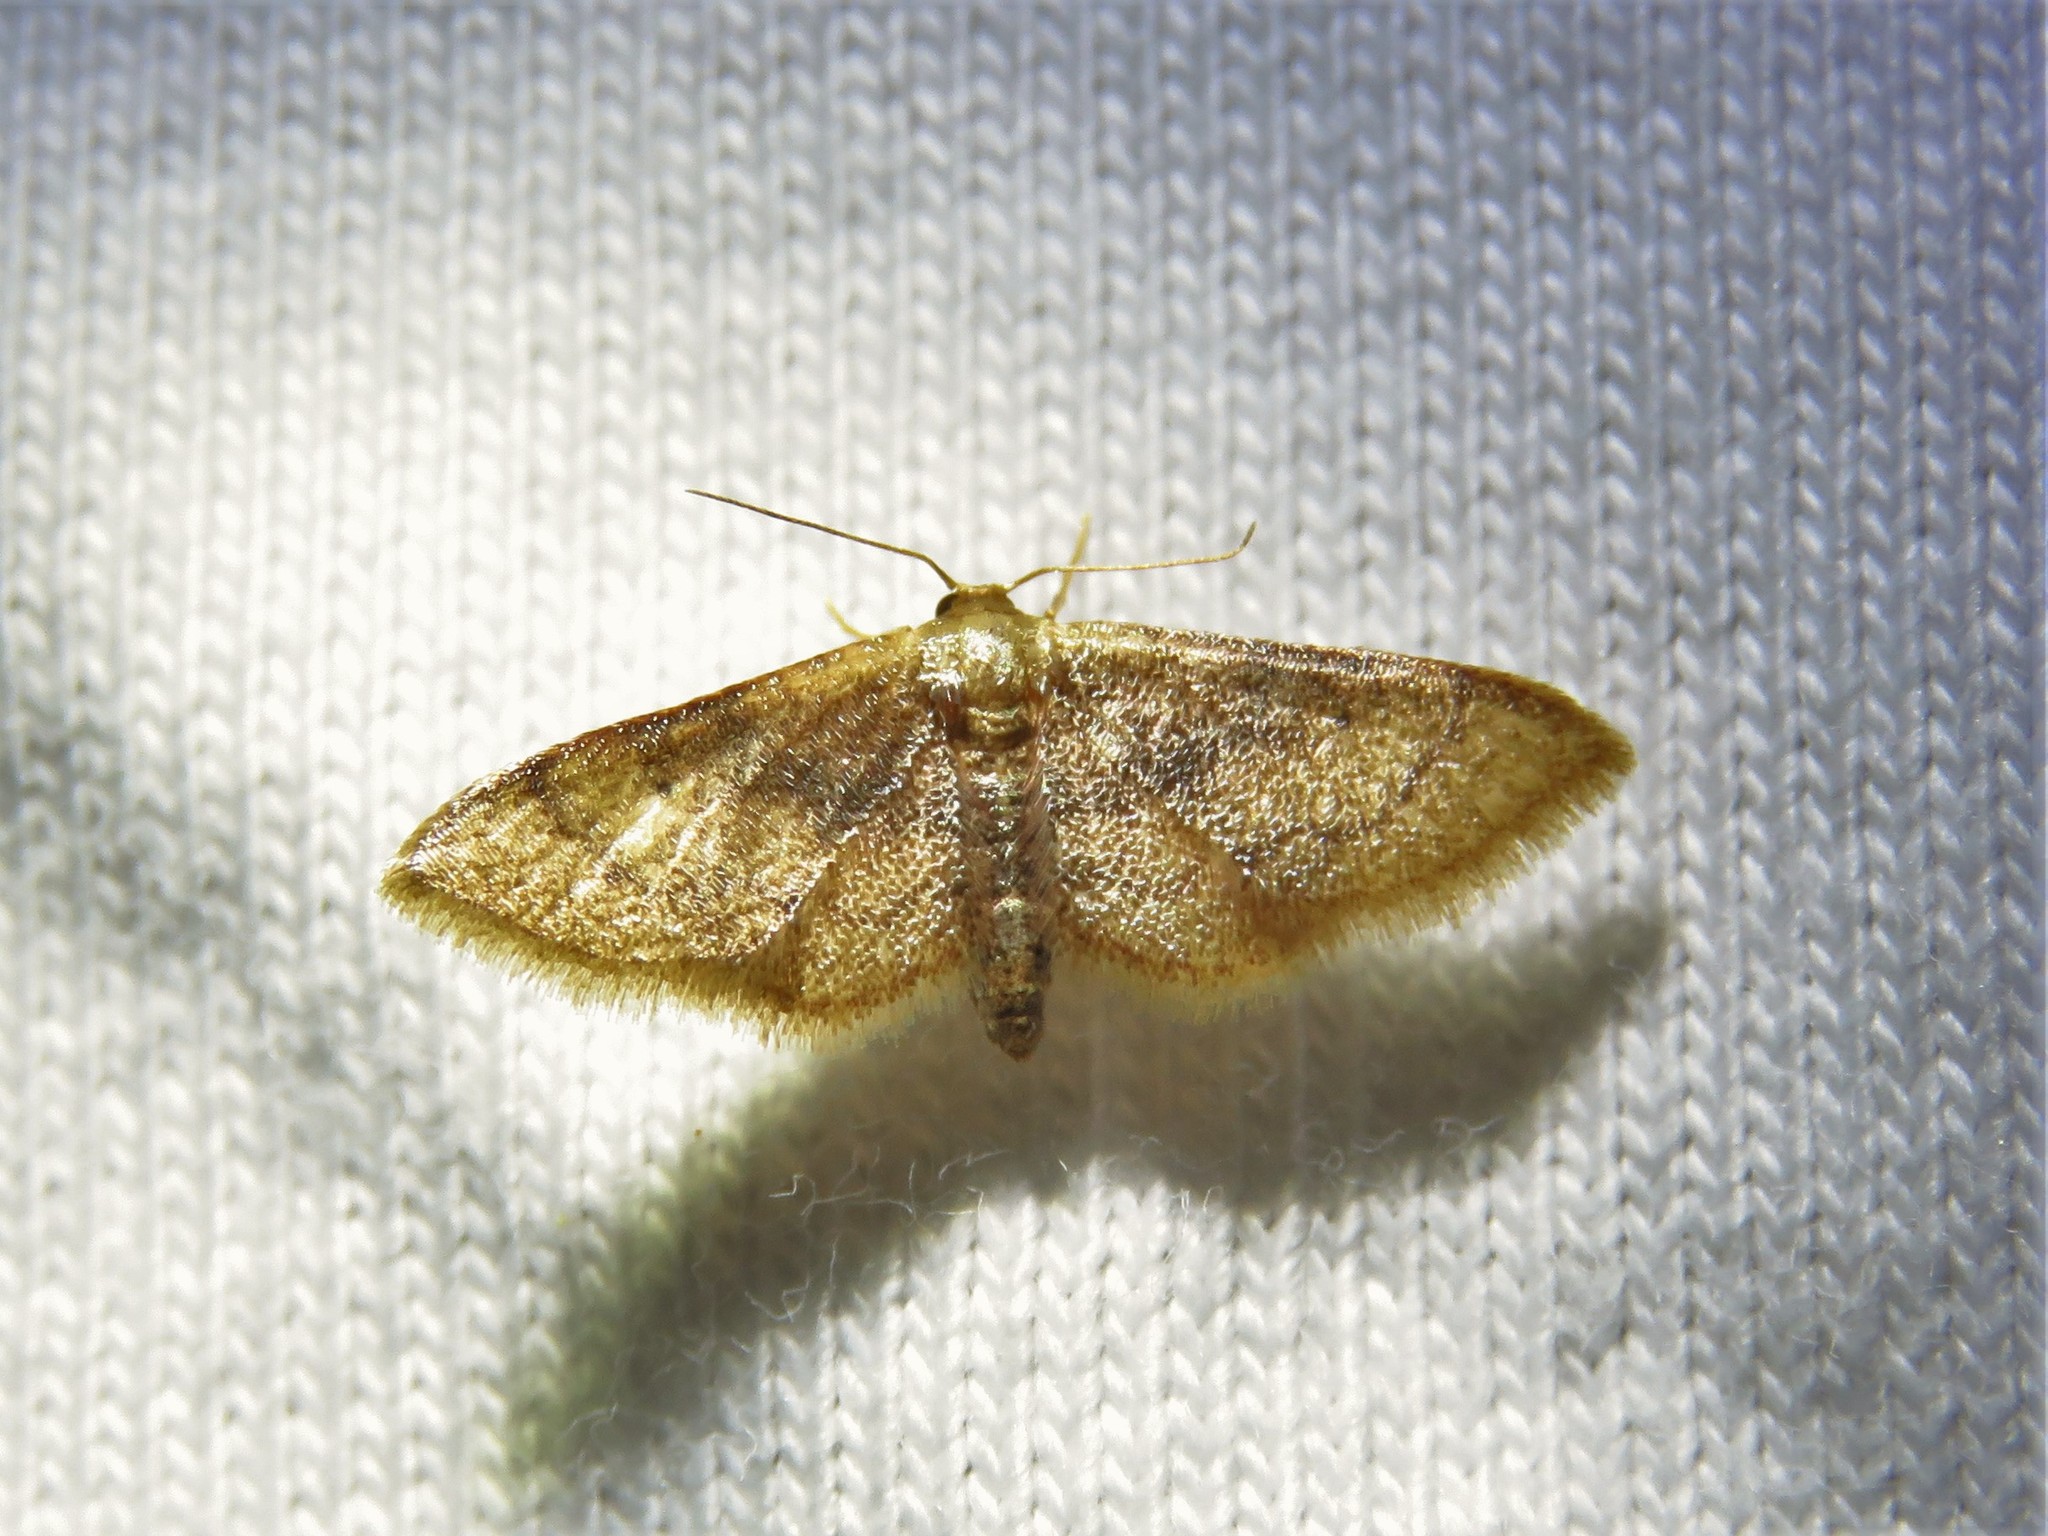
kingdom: Animalia
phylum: Arthropoda
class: Insecta
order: Lepidoptera
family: Geometridae
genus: Idaea
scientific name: Idaea demissaria
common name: Red-bordered wave
